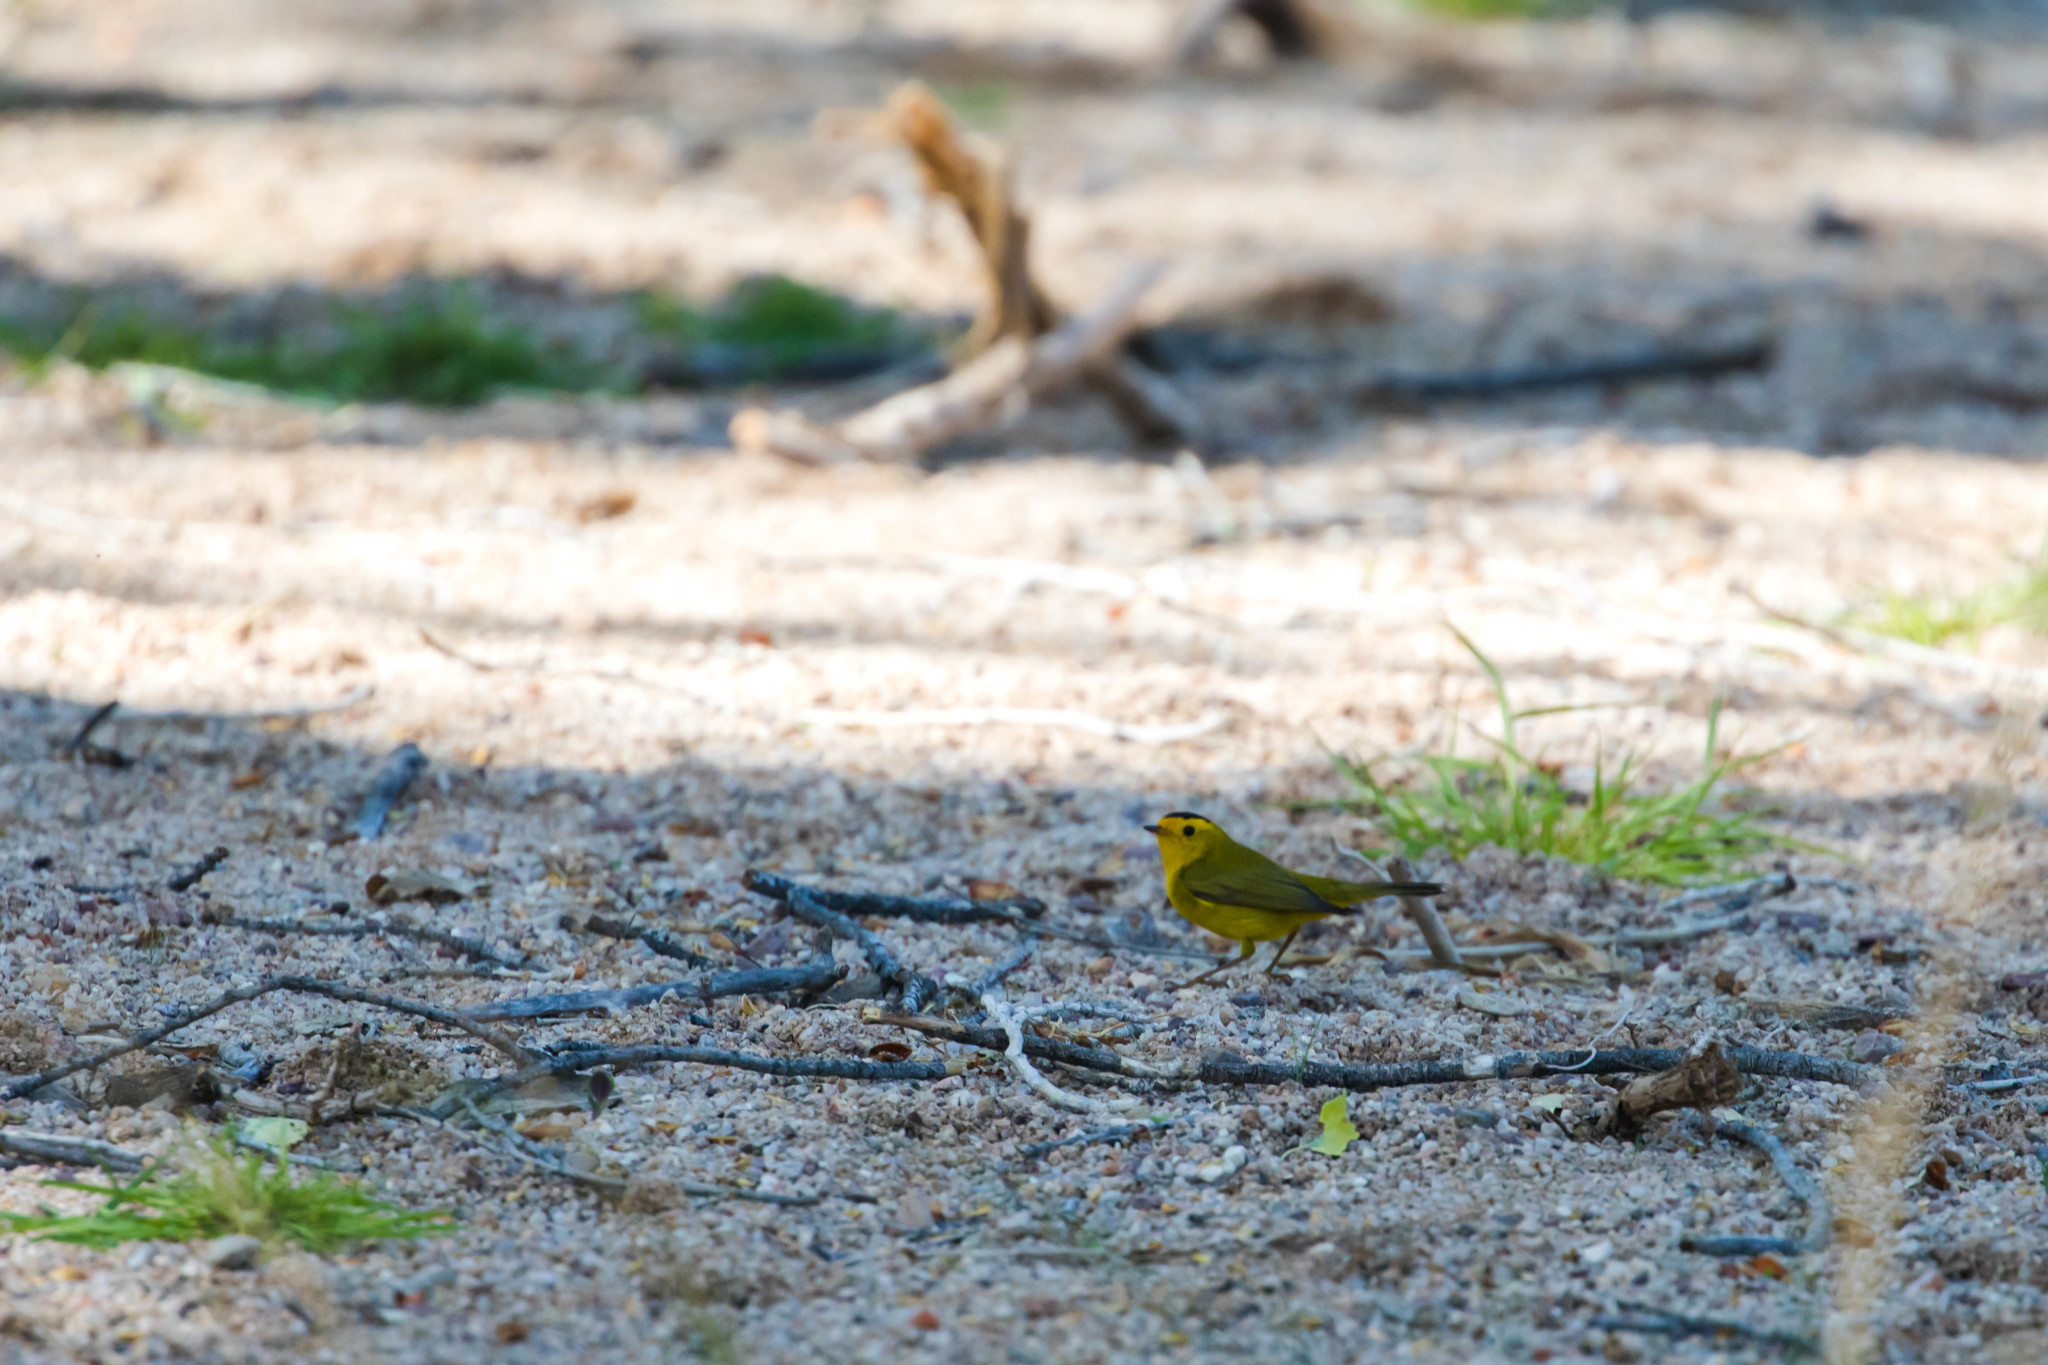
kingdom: Animalia
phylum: Chordata
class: Aves
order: Passeriformes
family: Parulidae
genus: Cardellina
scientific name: Cardellina pusilla
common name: Wilson's warbler
